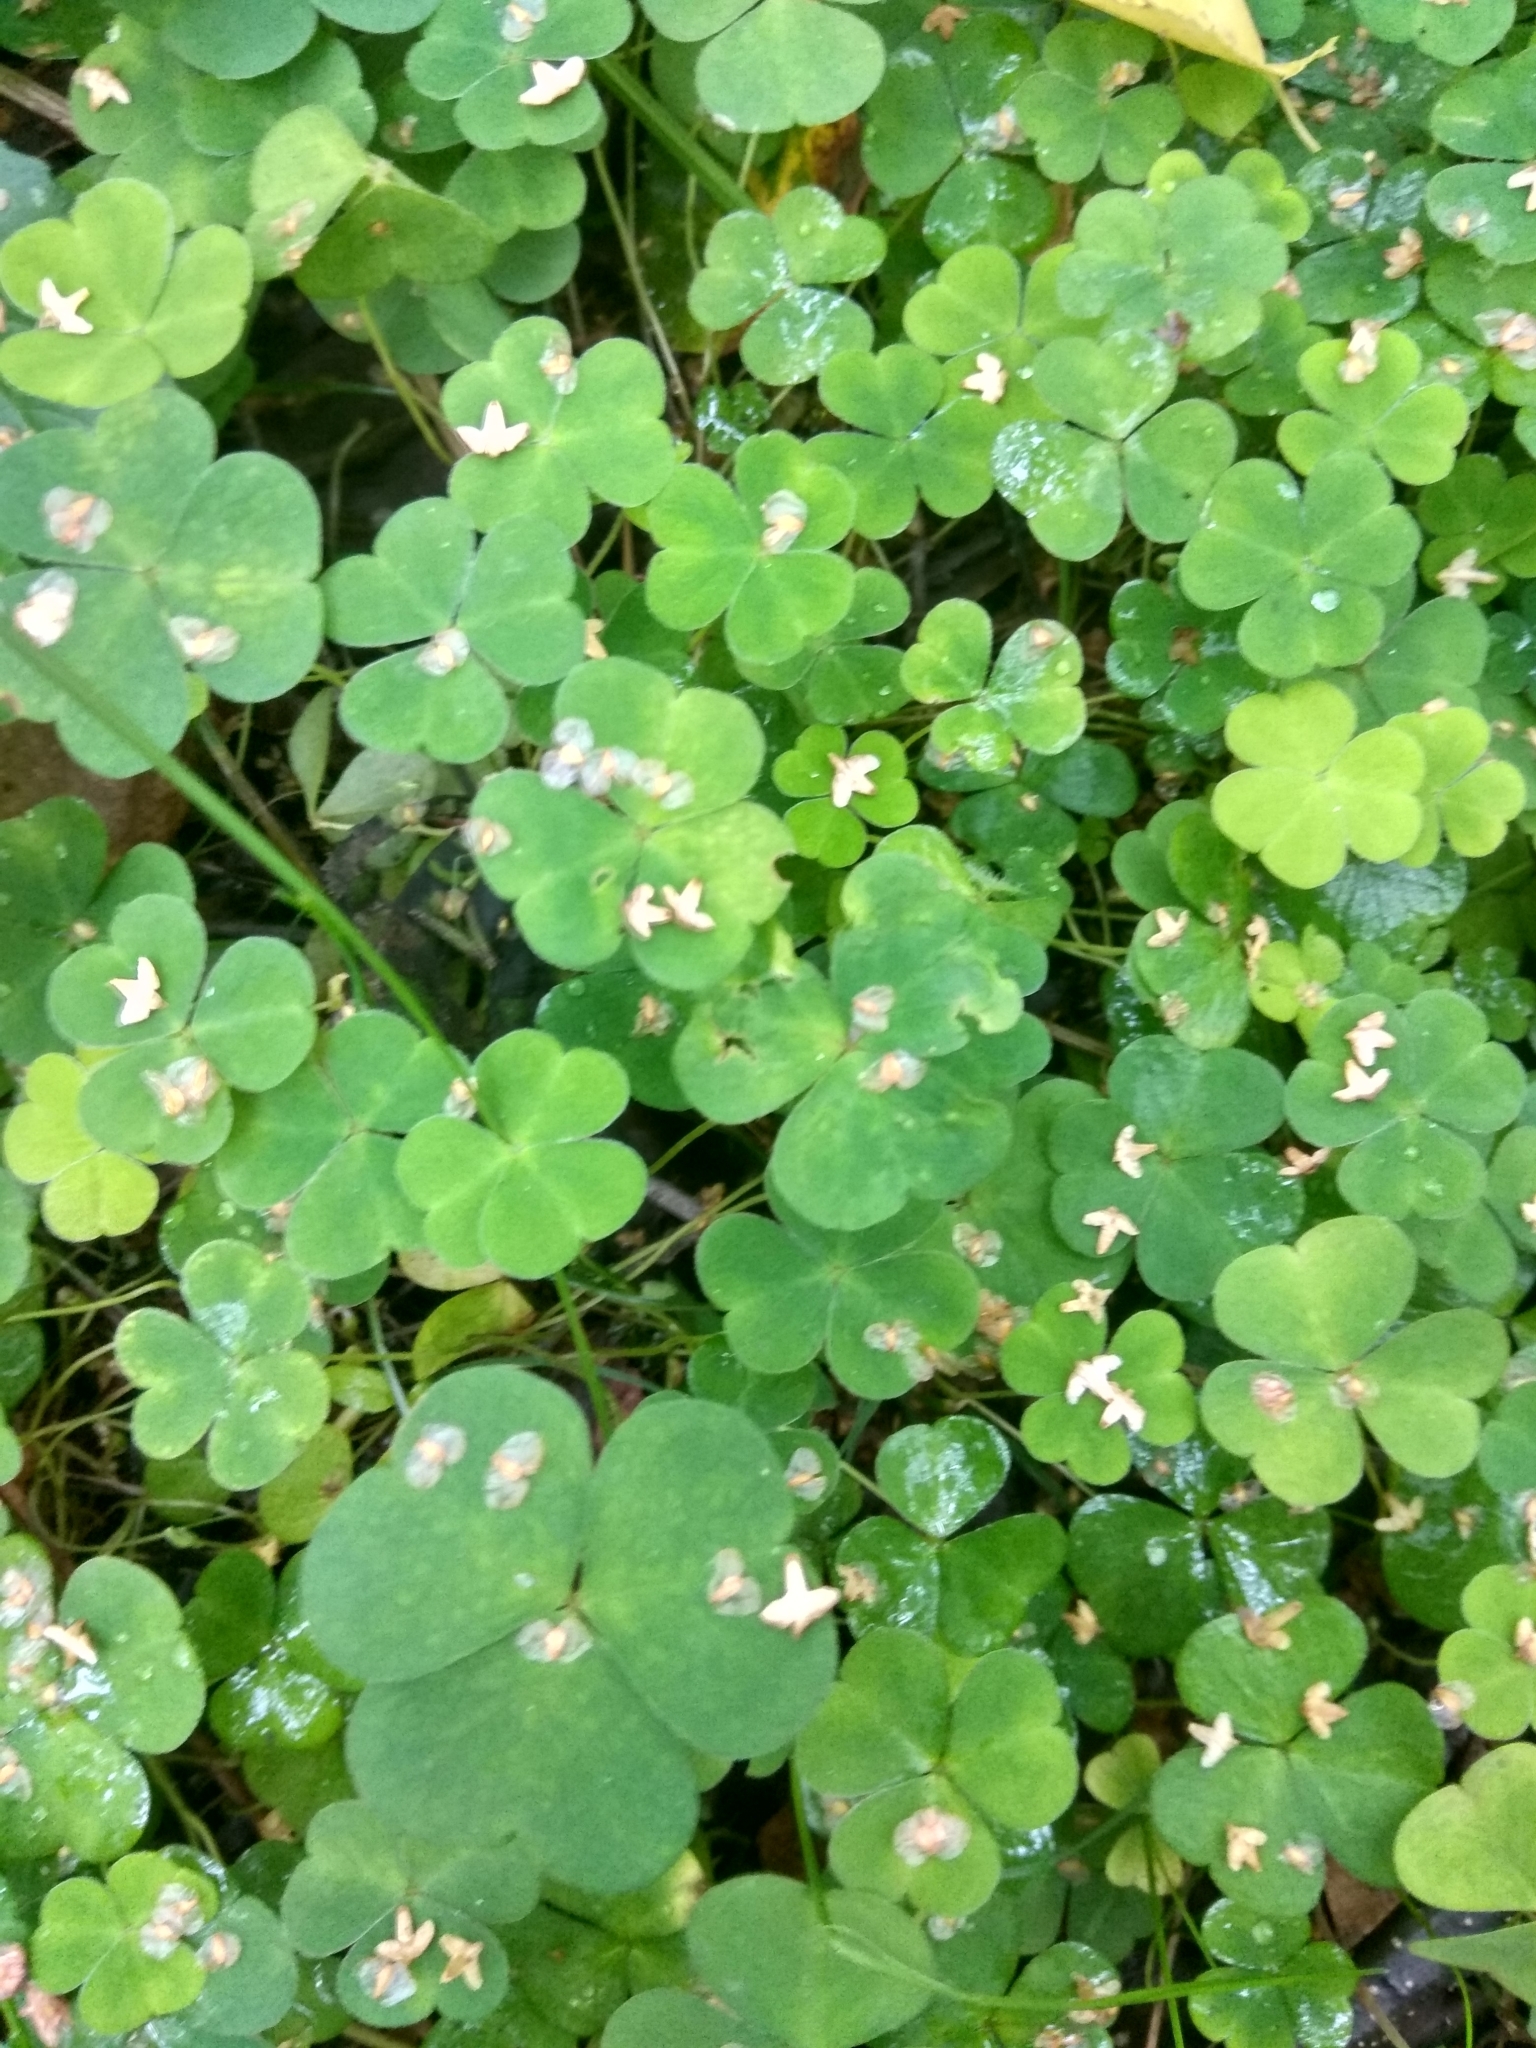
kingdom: Plantae
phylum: Tracheophyta
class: Magnoliopsida
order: Oxalidales
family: Oxalidaceae
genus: Oxalis
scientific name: Oxalis acetosella
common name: Wood-sorrel
